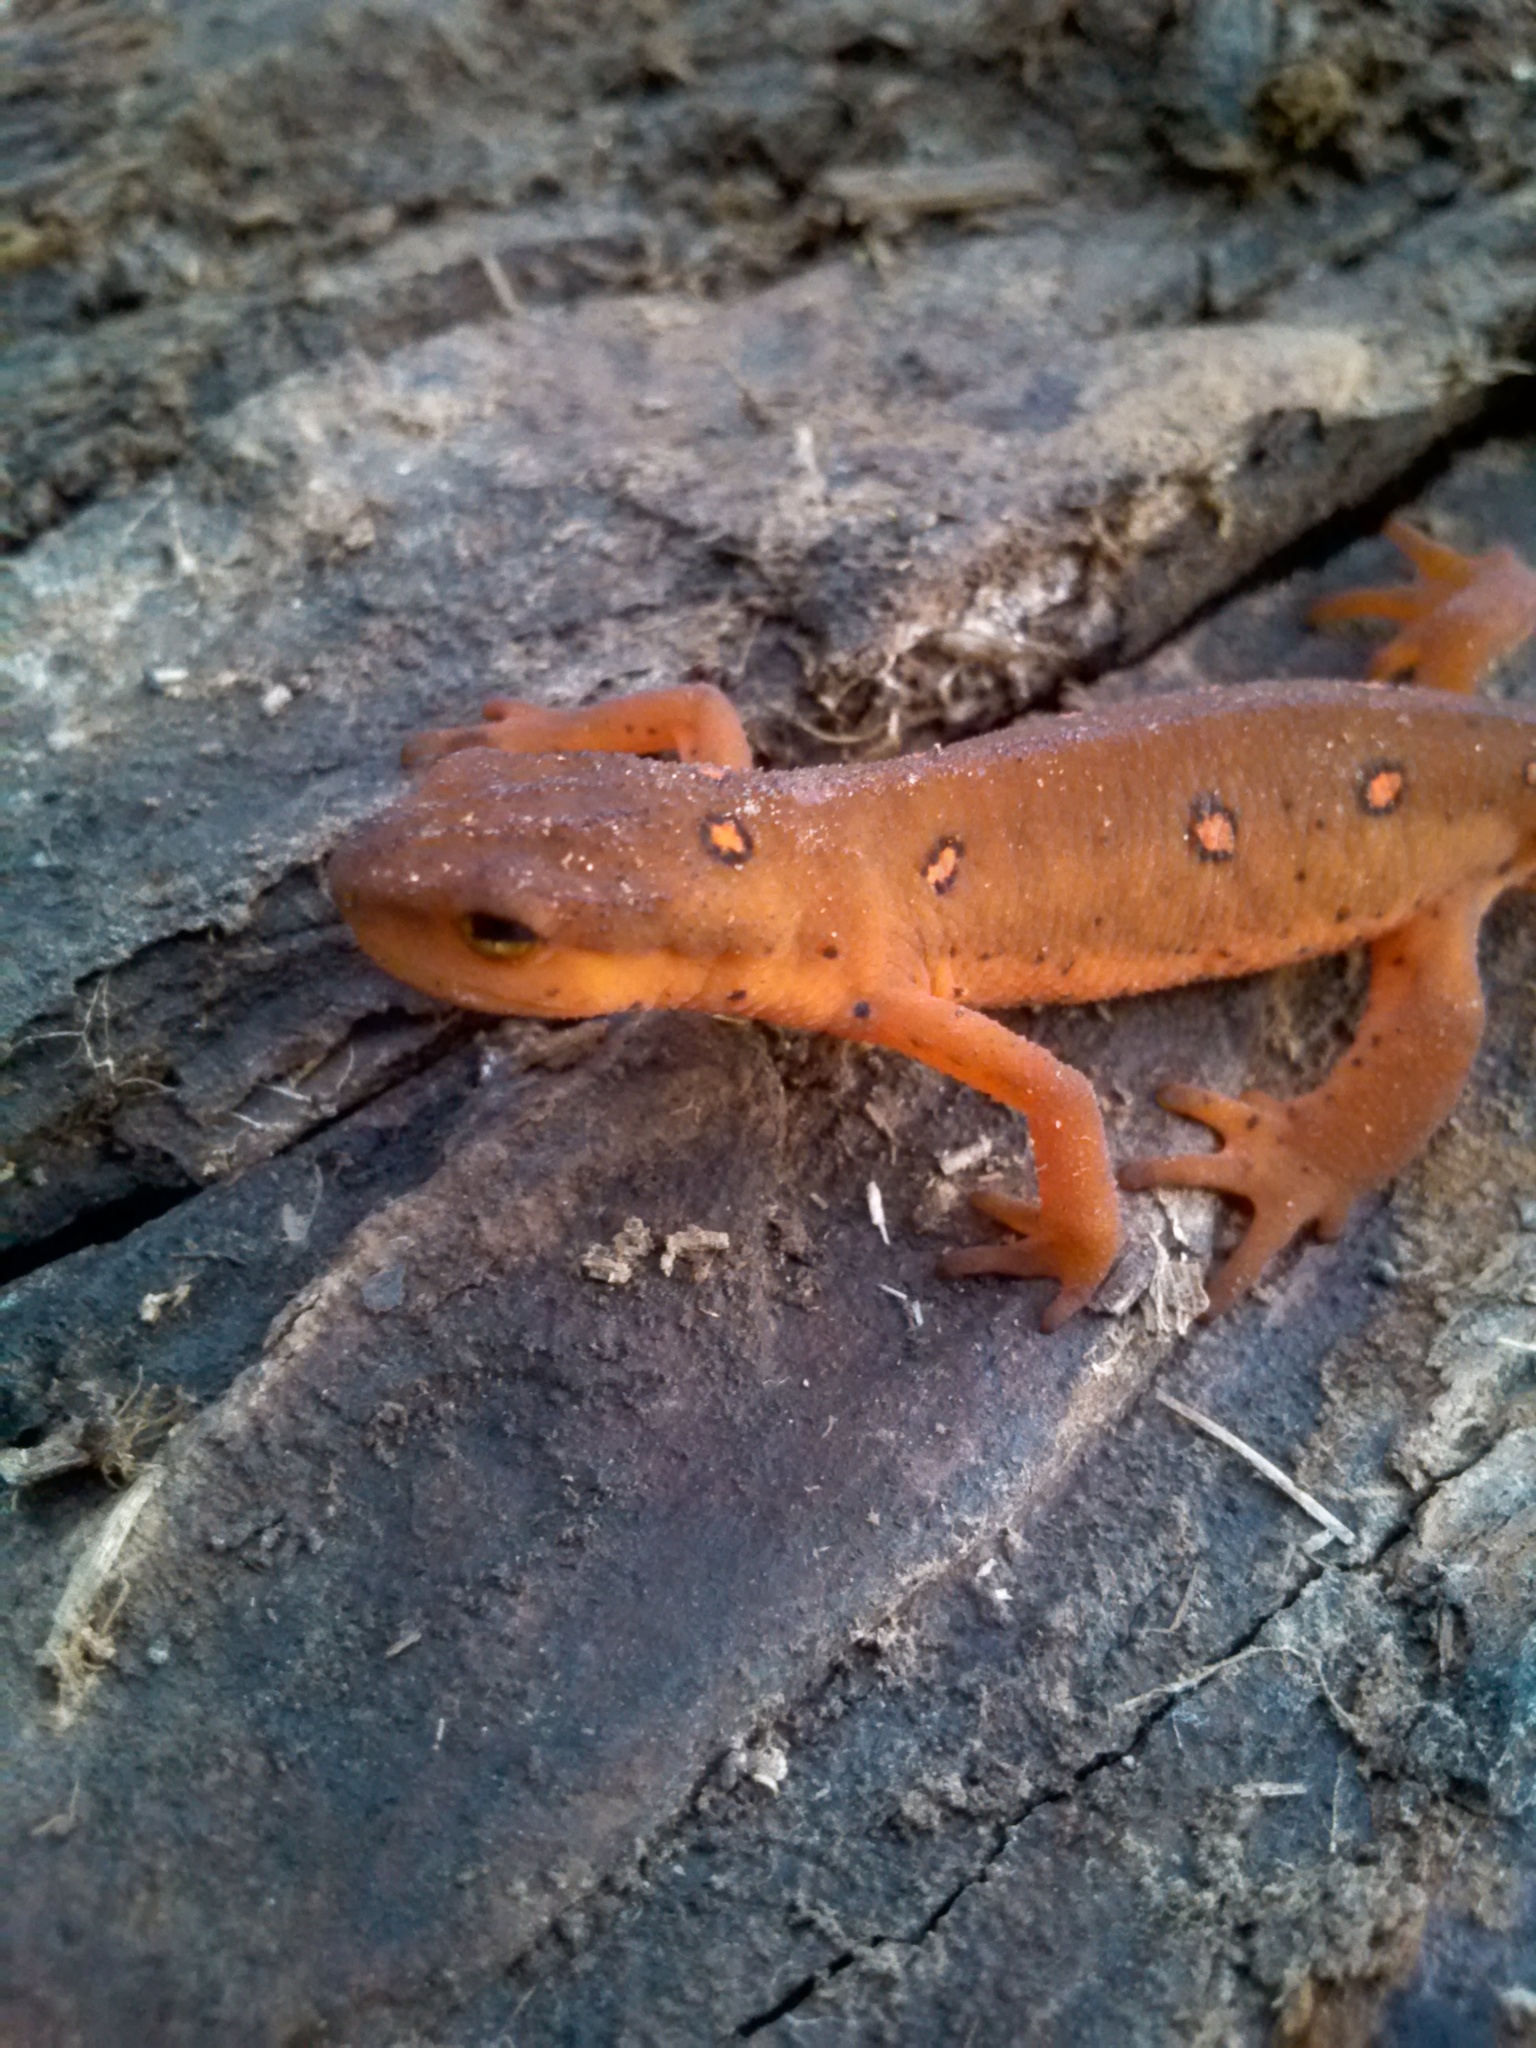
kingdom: Animalia
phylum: Chordata
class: Amphibia
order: Caudata
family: Salamandridae
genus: Notophthalmus
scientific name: Notophthalmus viridescens
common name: Eastern newt
